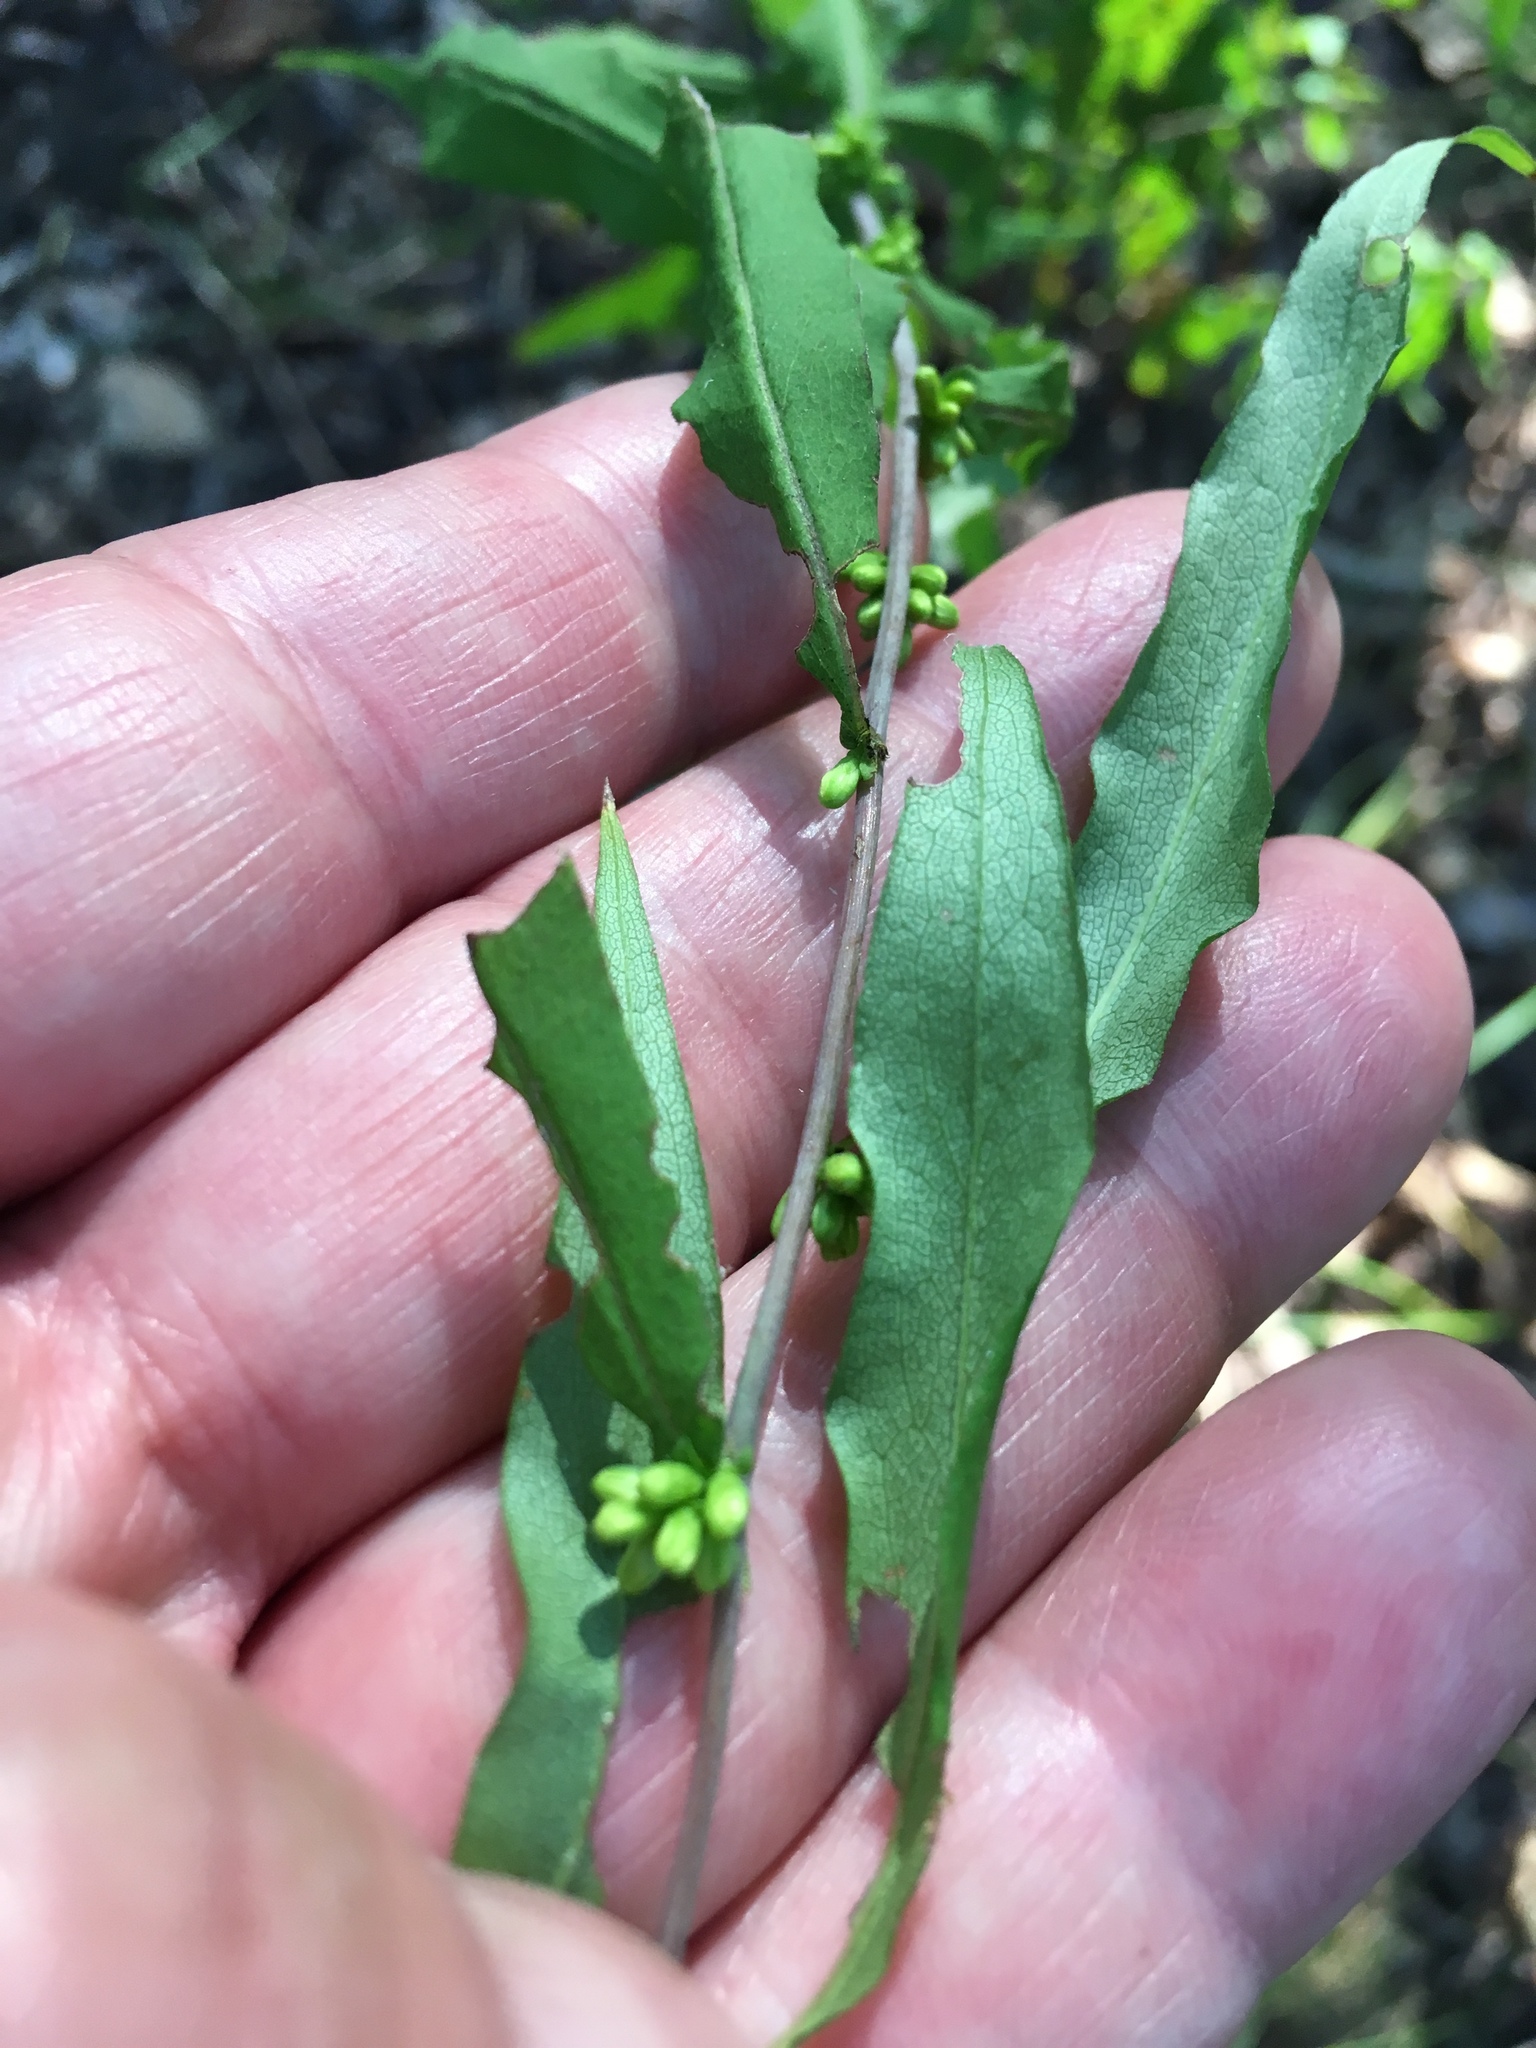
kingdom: Plantae
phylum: Tracheophyta
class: Magnoliopsida
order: Asterales
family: Asteraceae
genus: Solidago
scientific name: Solidago caesia
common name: Woodland goldenrod
